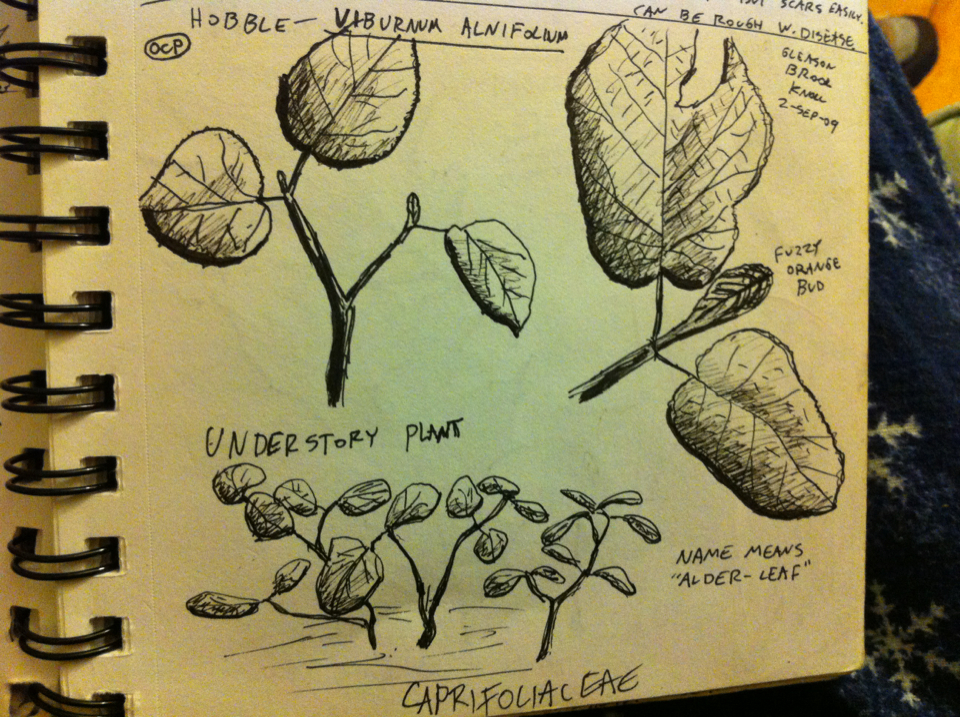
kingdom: Plantae
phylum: Tracheophyta
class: Magnoliopsida
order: Dipsacales
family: Viburnaceae
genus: Viburnum
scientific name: Viburnum lantanoides
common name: Hobblebush
